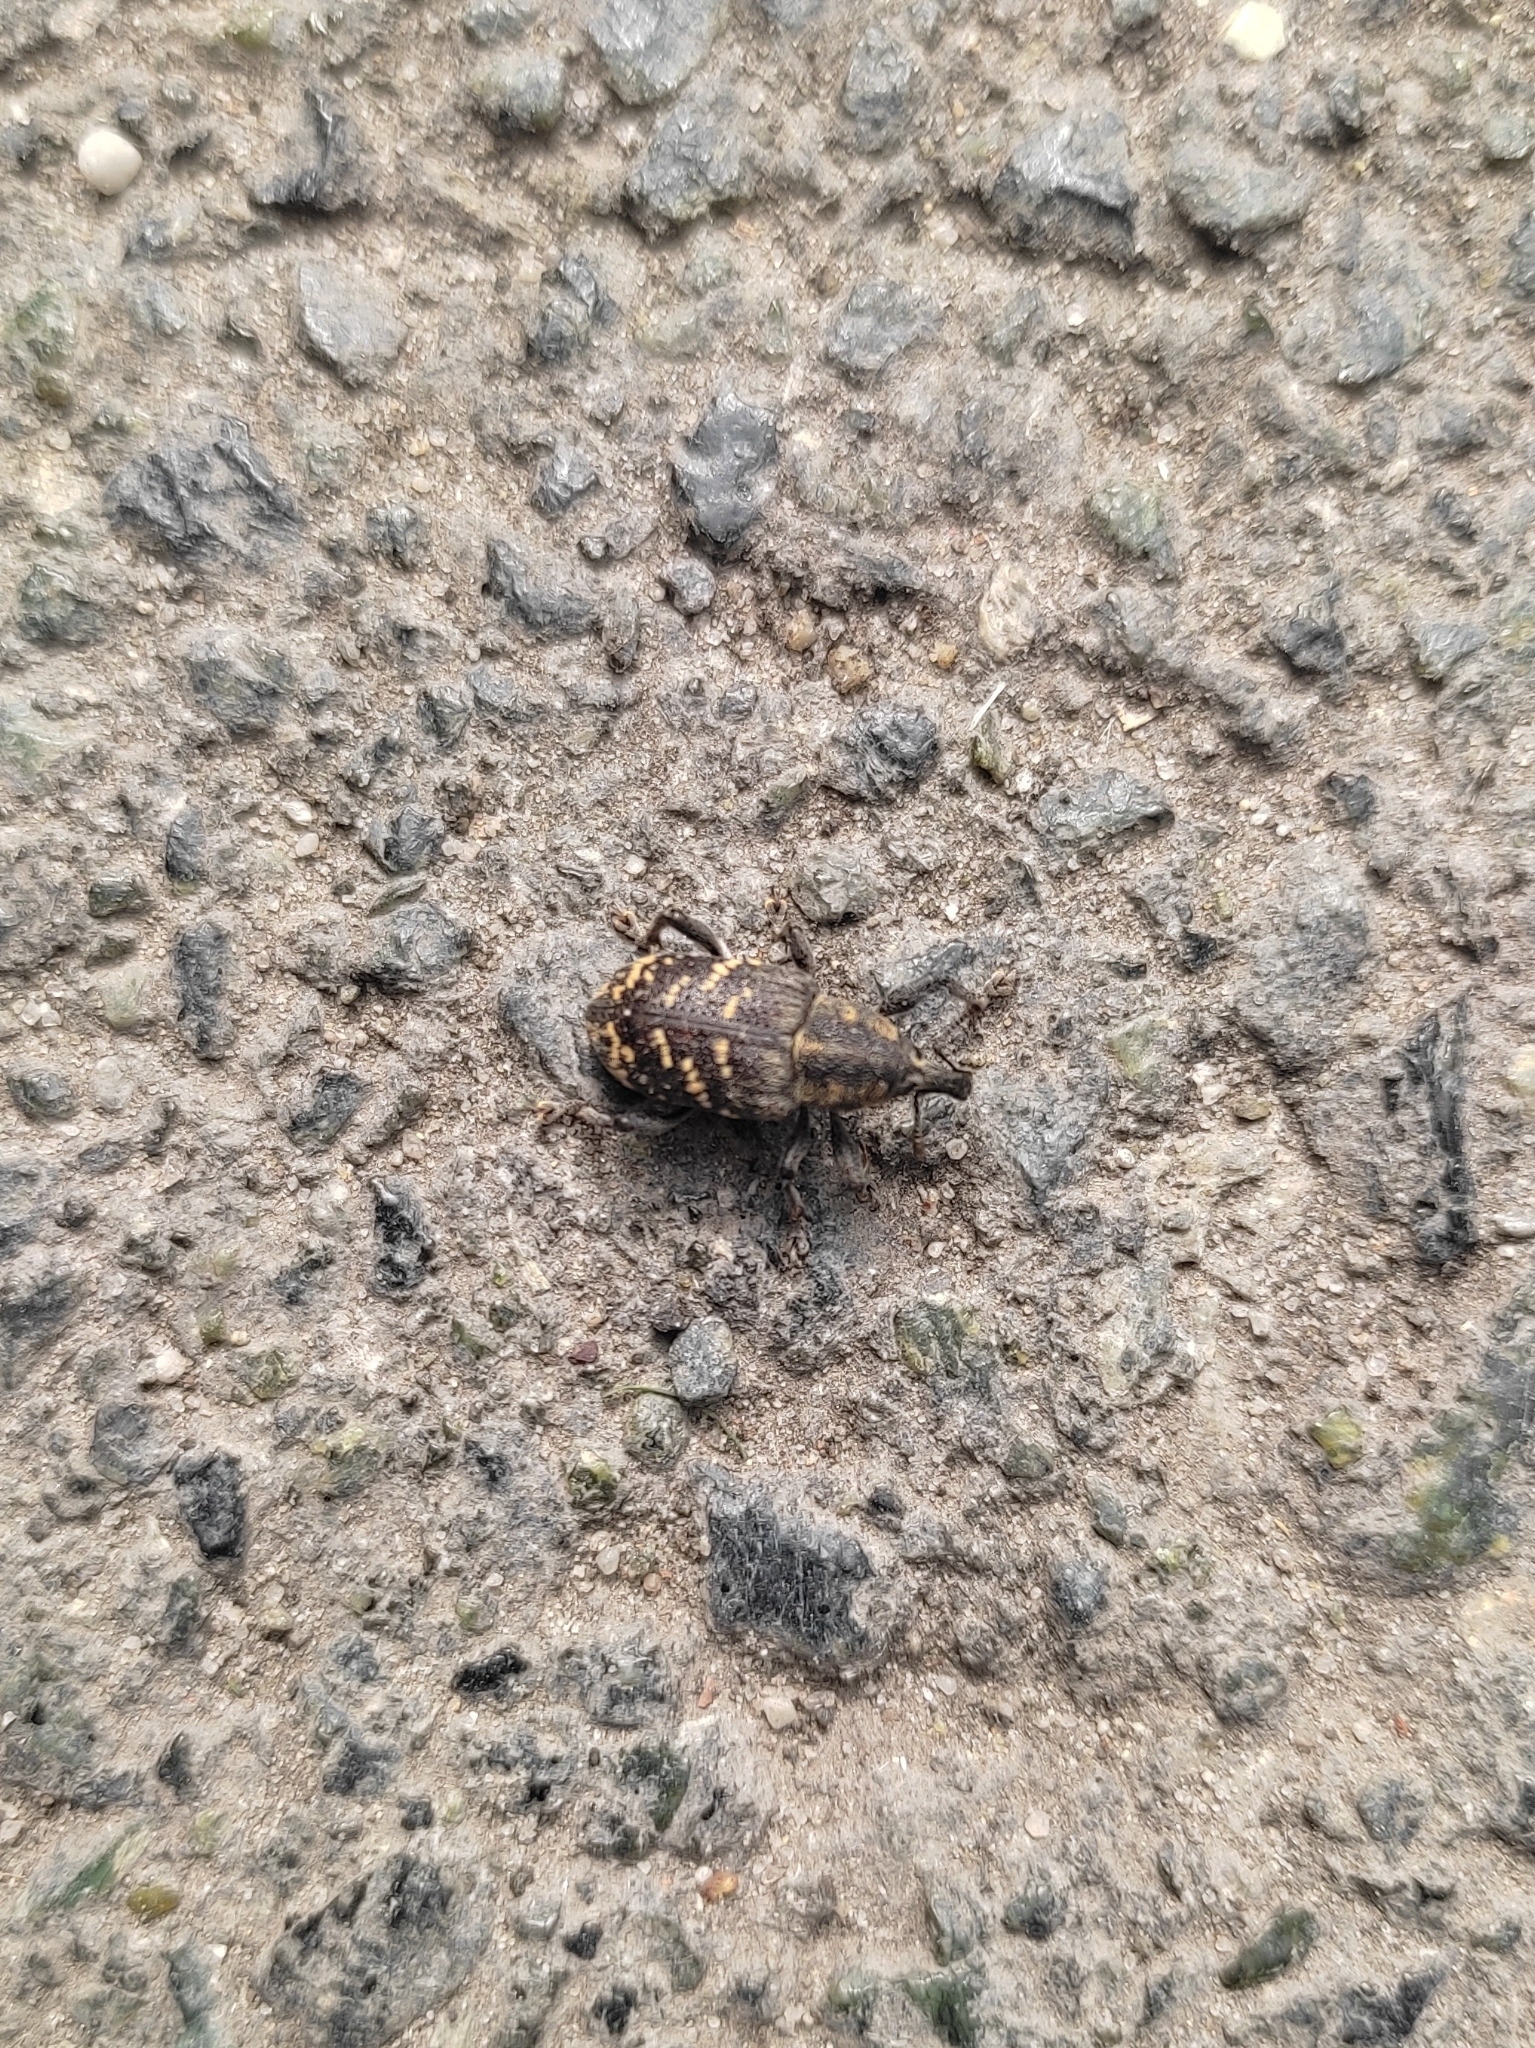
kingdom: Animalia
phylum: Arthropoda
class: Insecta
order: Coleoptera
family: Curculionidae
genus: Hylobius
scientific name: Hylobius abietis
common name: Large pine weevil
